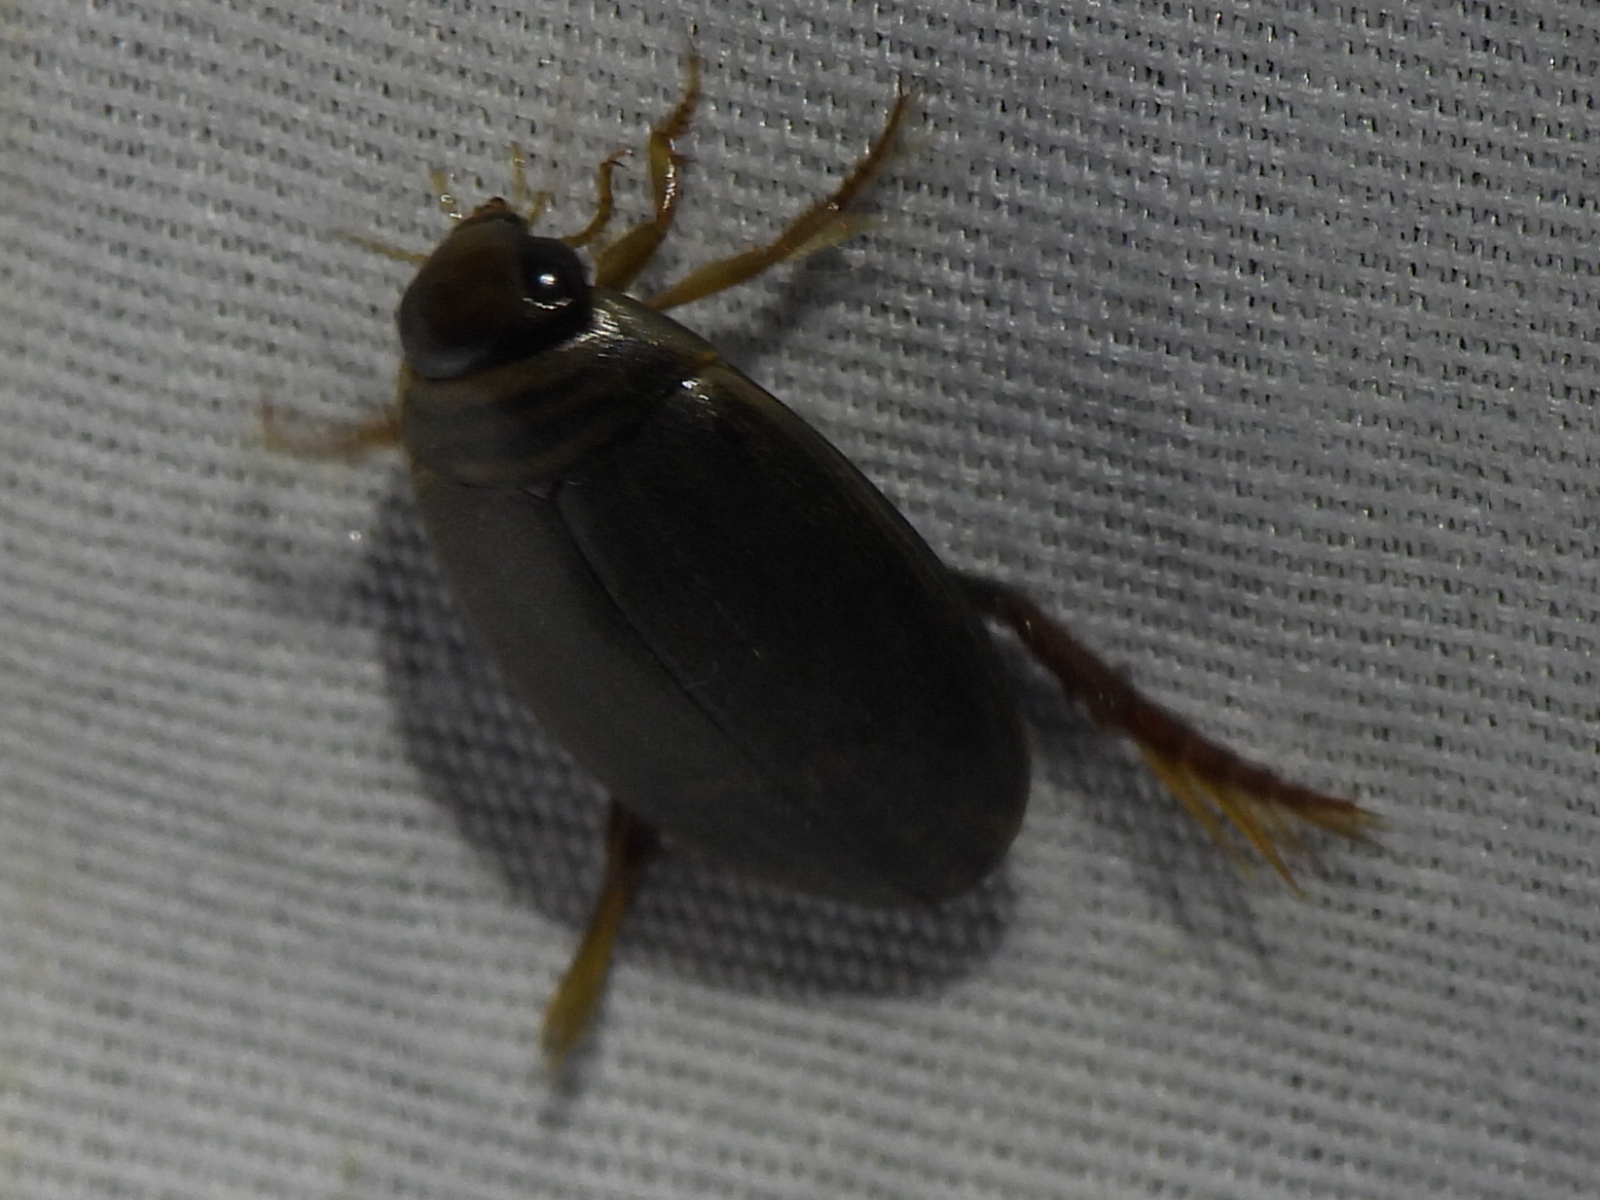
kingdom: Animalia
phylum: Arthropoda
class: Insecta
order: Coleoptera
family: Dytiscidae
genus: Thermonectus
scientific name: Thermonectus nigrofasciatus
